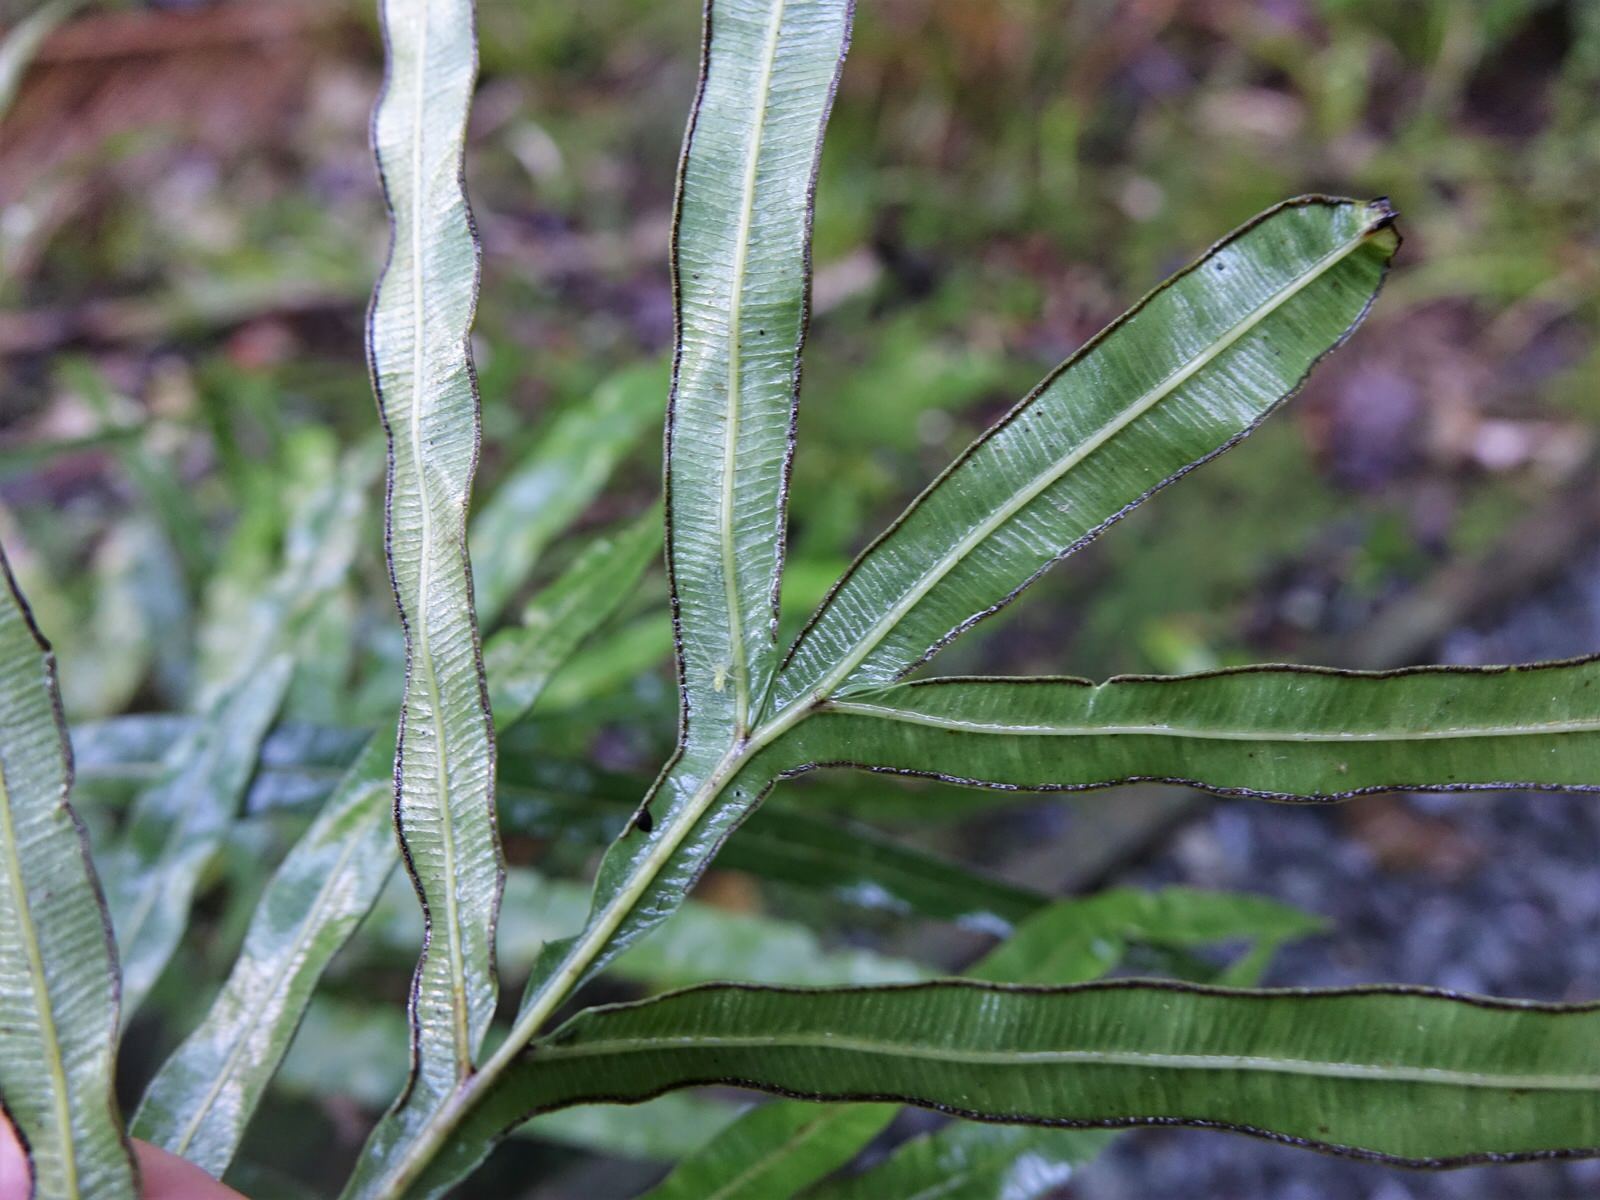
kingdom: Plantae
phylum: Tracheophyta
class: Polypodiopsida
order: Polypodiales
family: Pteridaceae
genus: Pteris
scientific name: Pteris cretica
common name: Ribbon fern
